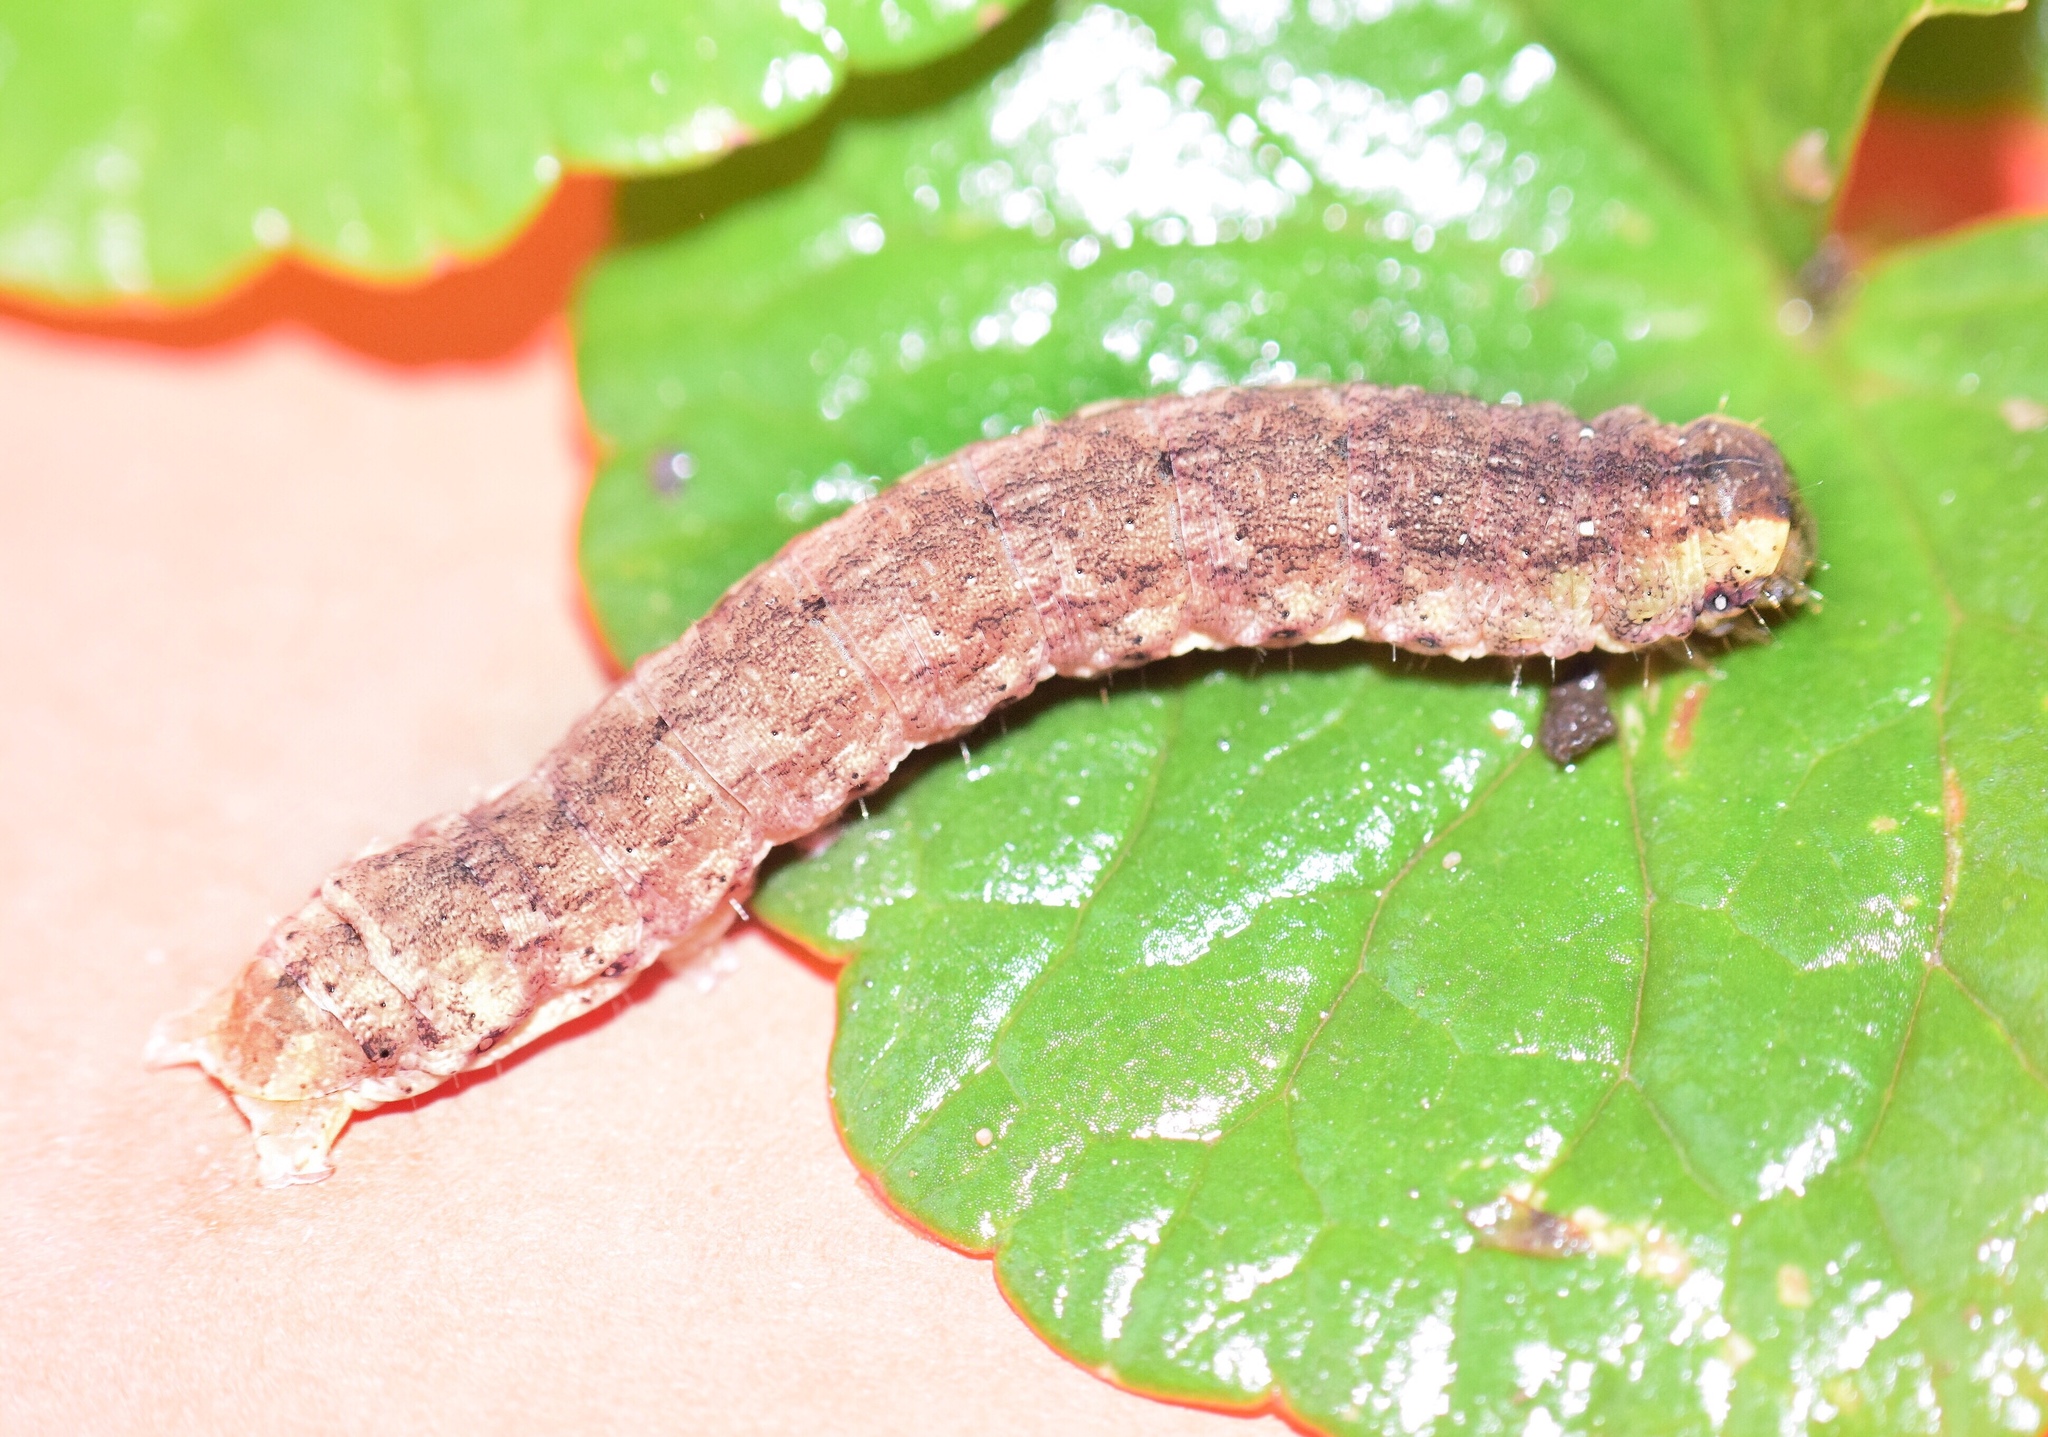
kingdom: Animalia
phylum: Arthropoda
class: Insecta
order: Lepidoptera
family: Noctuidae
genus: Mentaxya
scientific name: Mentaxya ignicollis
